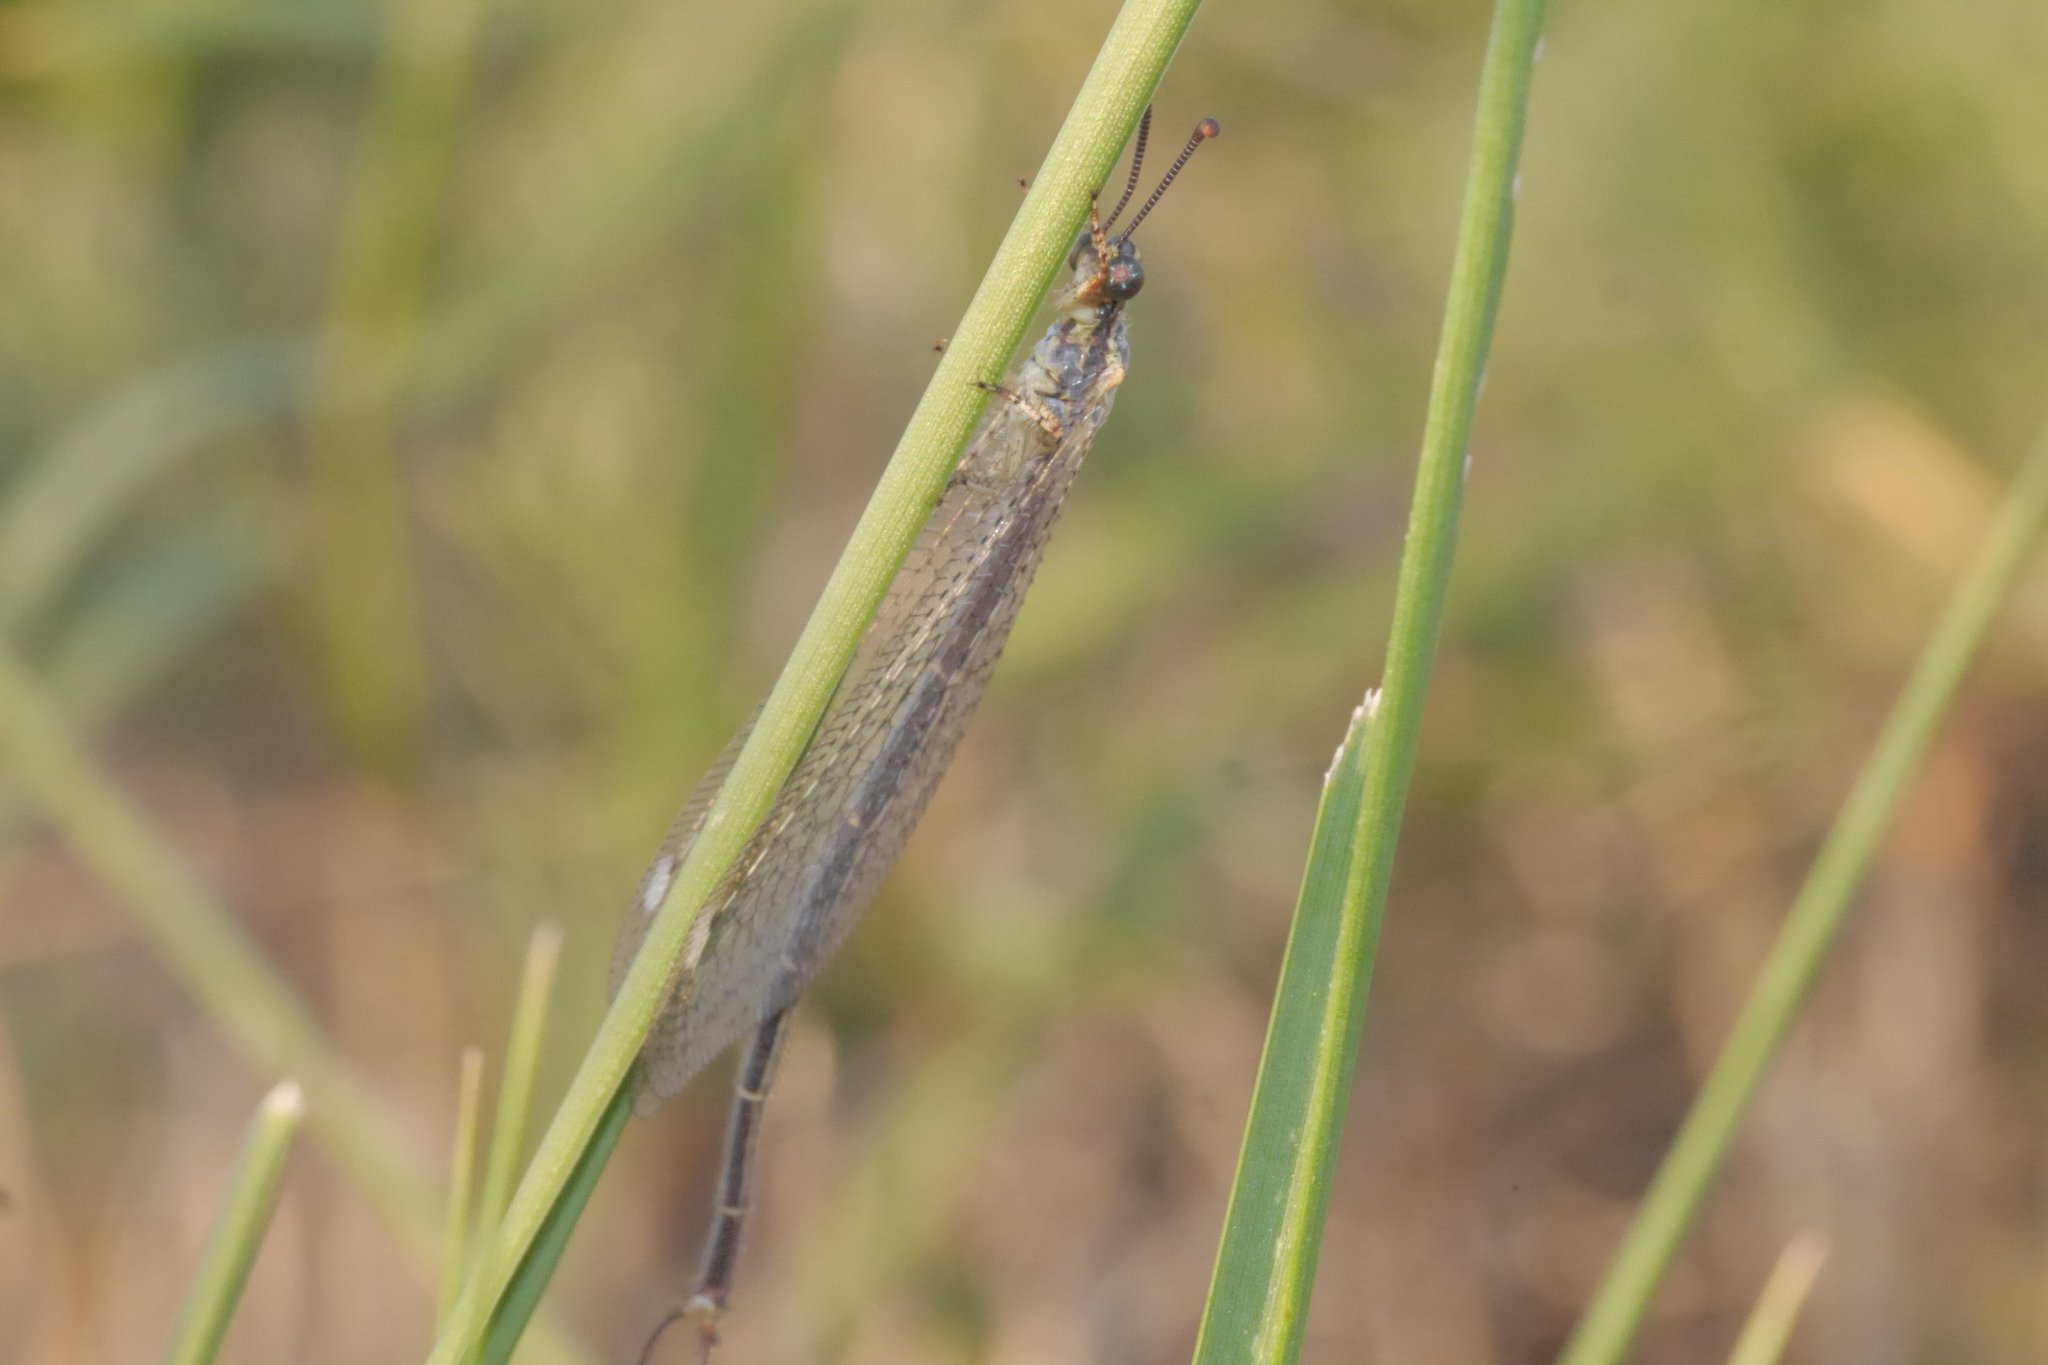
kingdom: Animalia
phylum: Arthropoda
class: Insecta
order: Neuroptera
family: Myrmeleontidae
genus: Macronemurus
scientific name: Macronemurus appendiculatus
